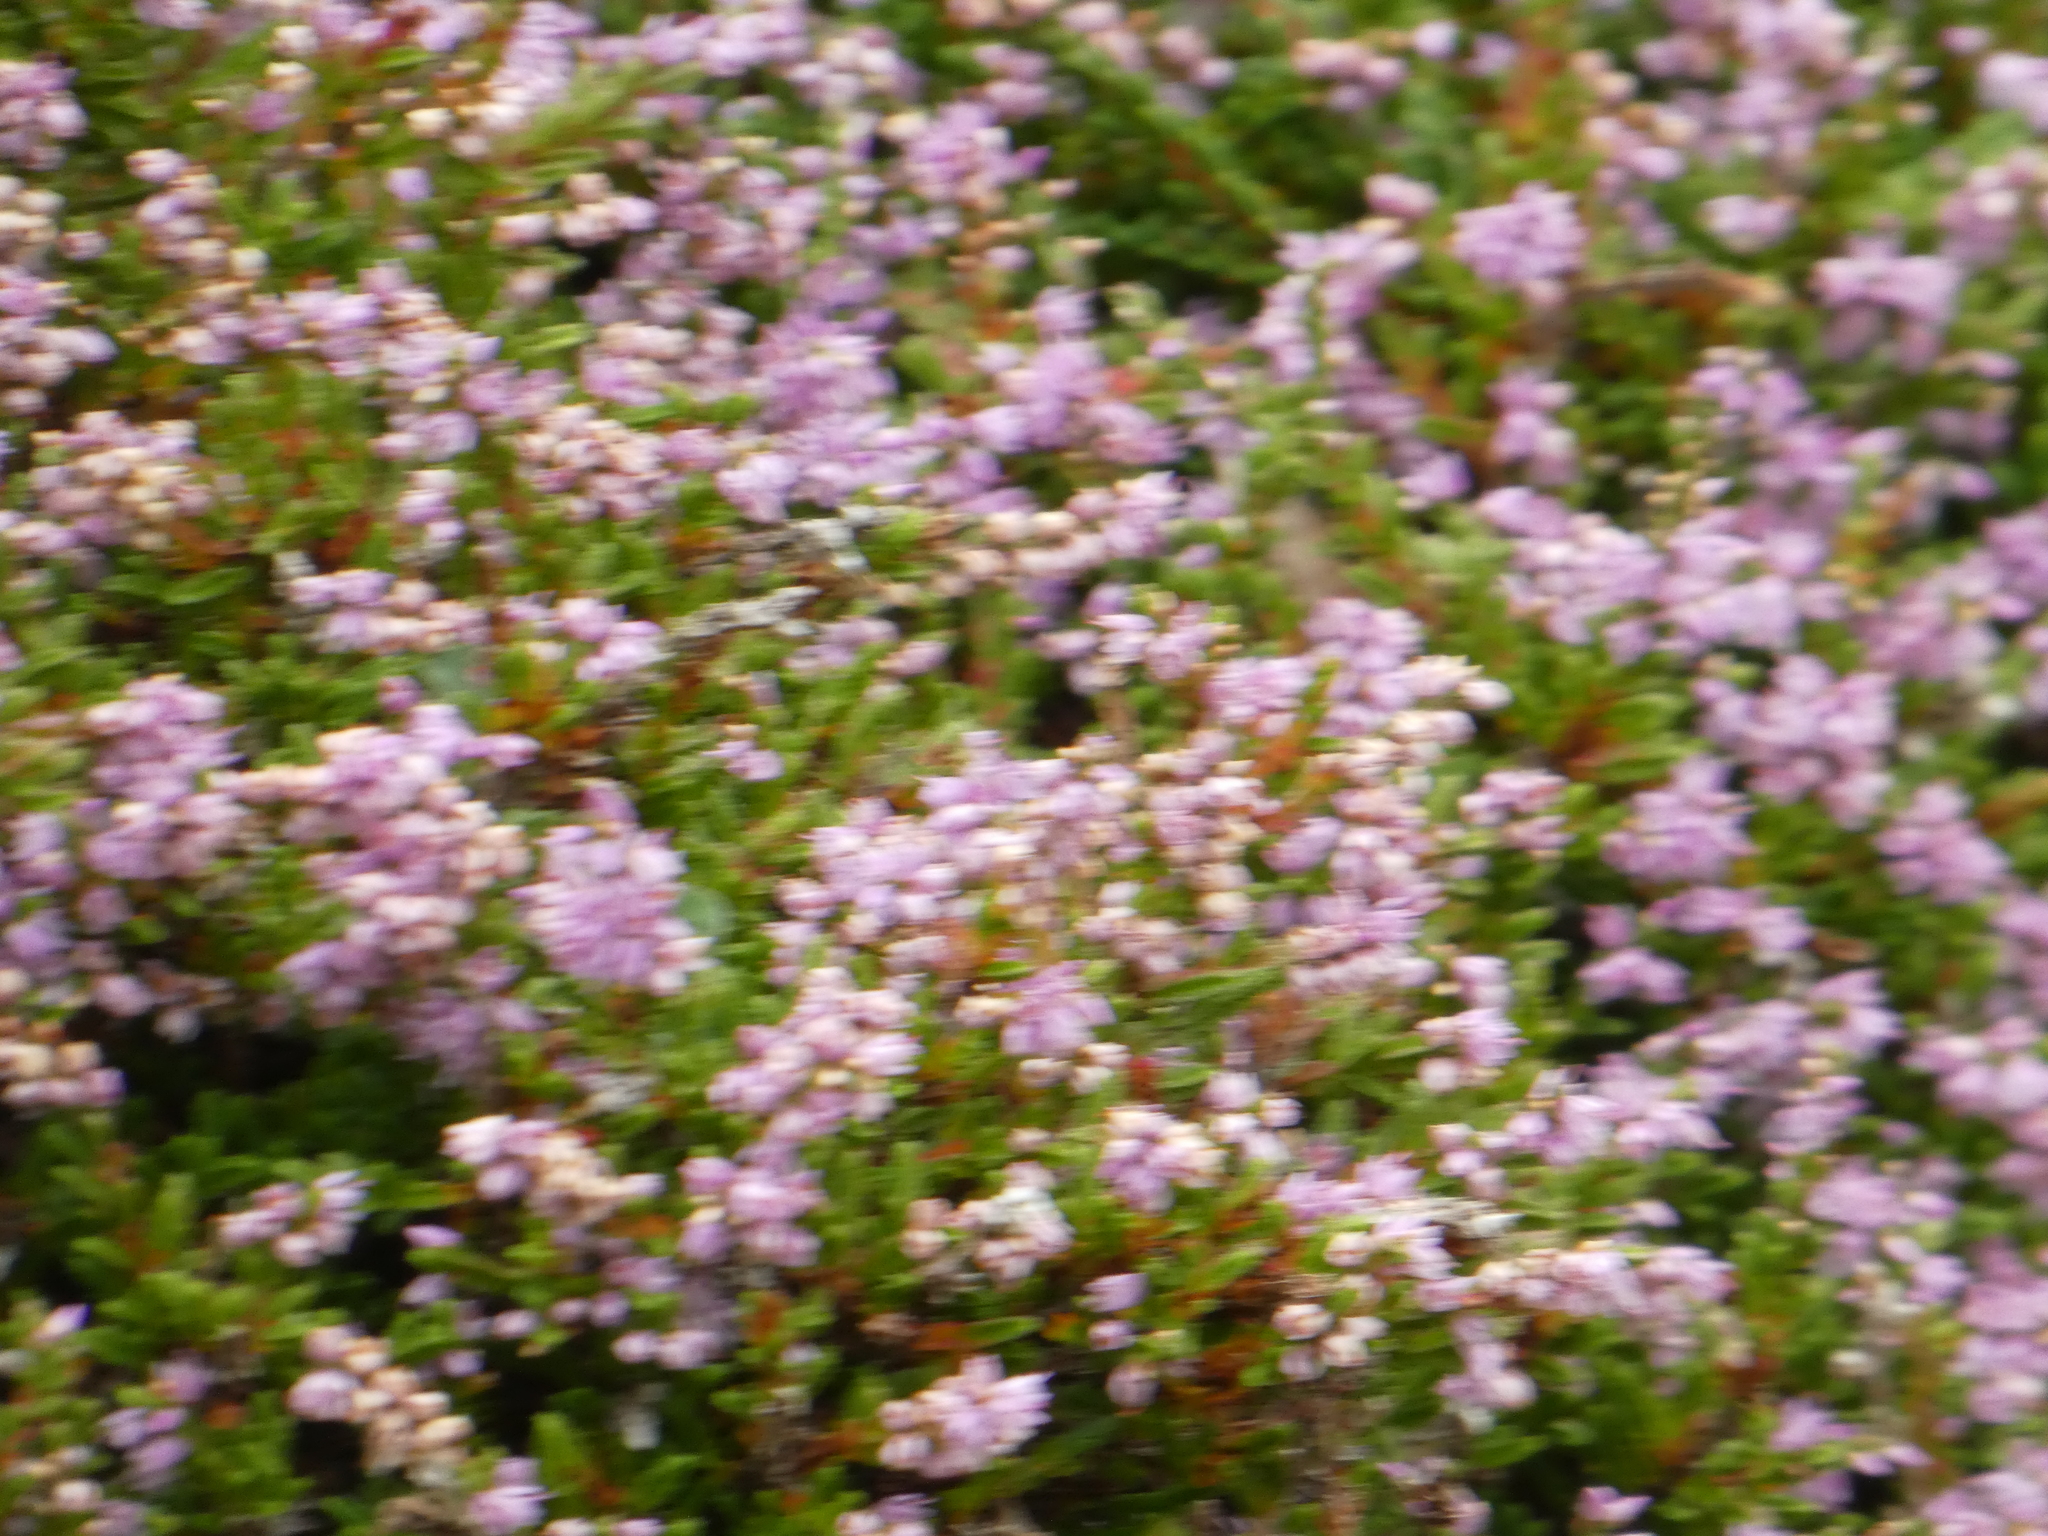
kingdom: Plantae
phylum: Tracheophyta
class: Magnoliopsida
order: Ericales
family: Ericaceae
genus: Calluna
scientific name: Calluna vulgaris
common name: Heather
